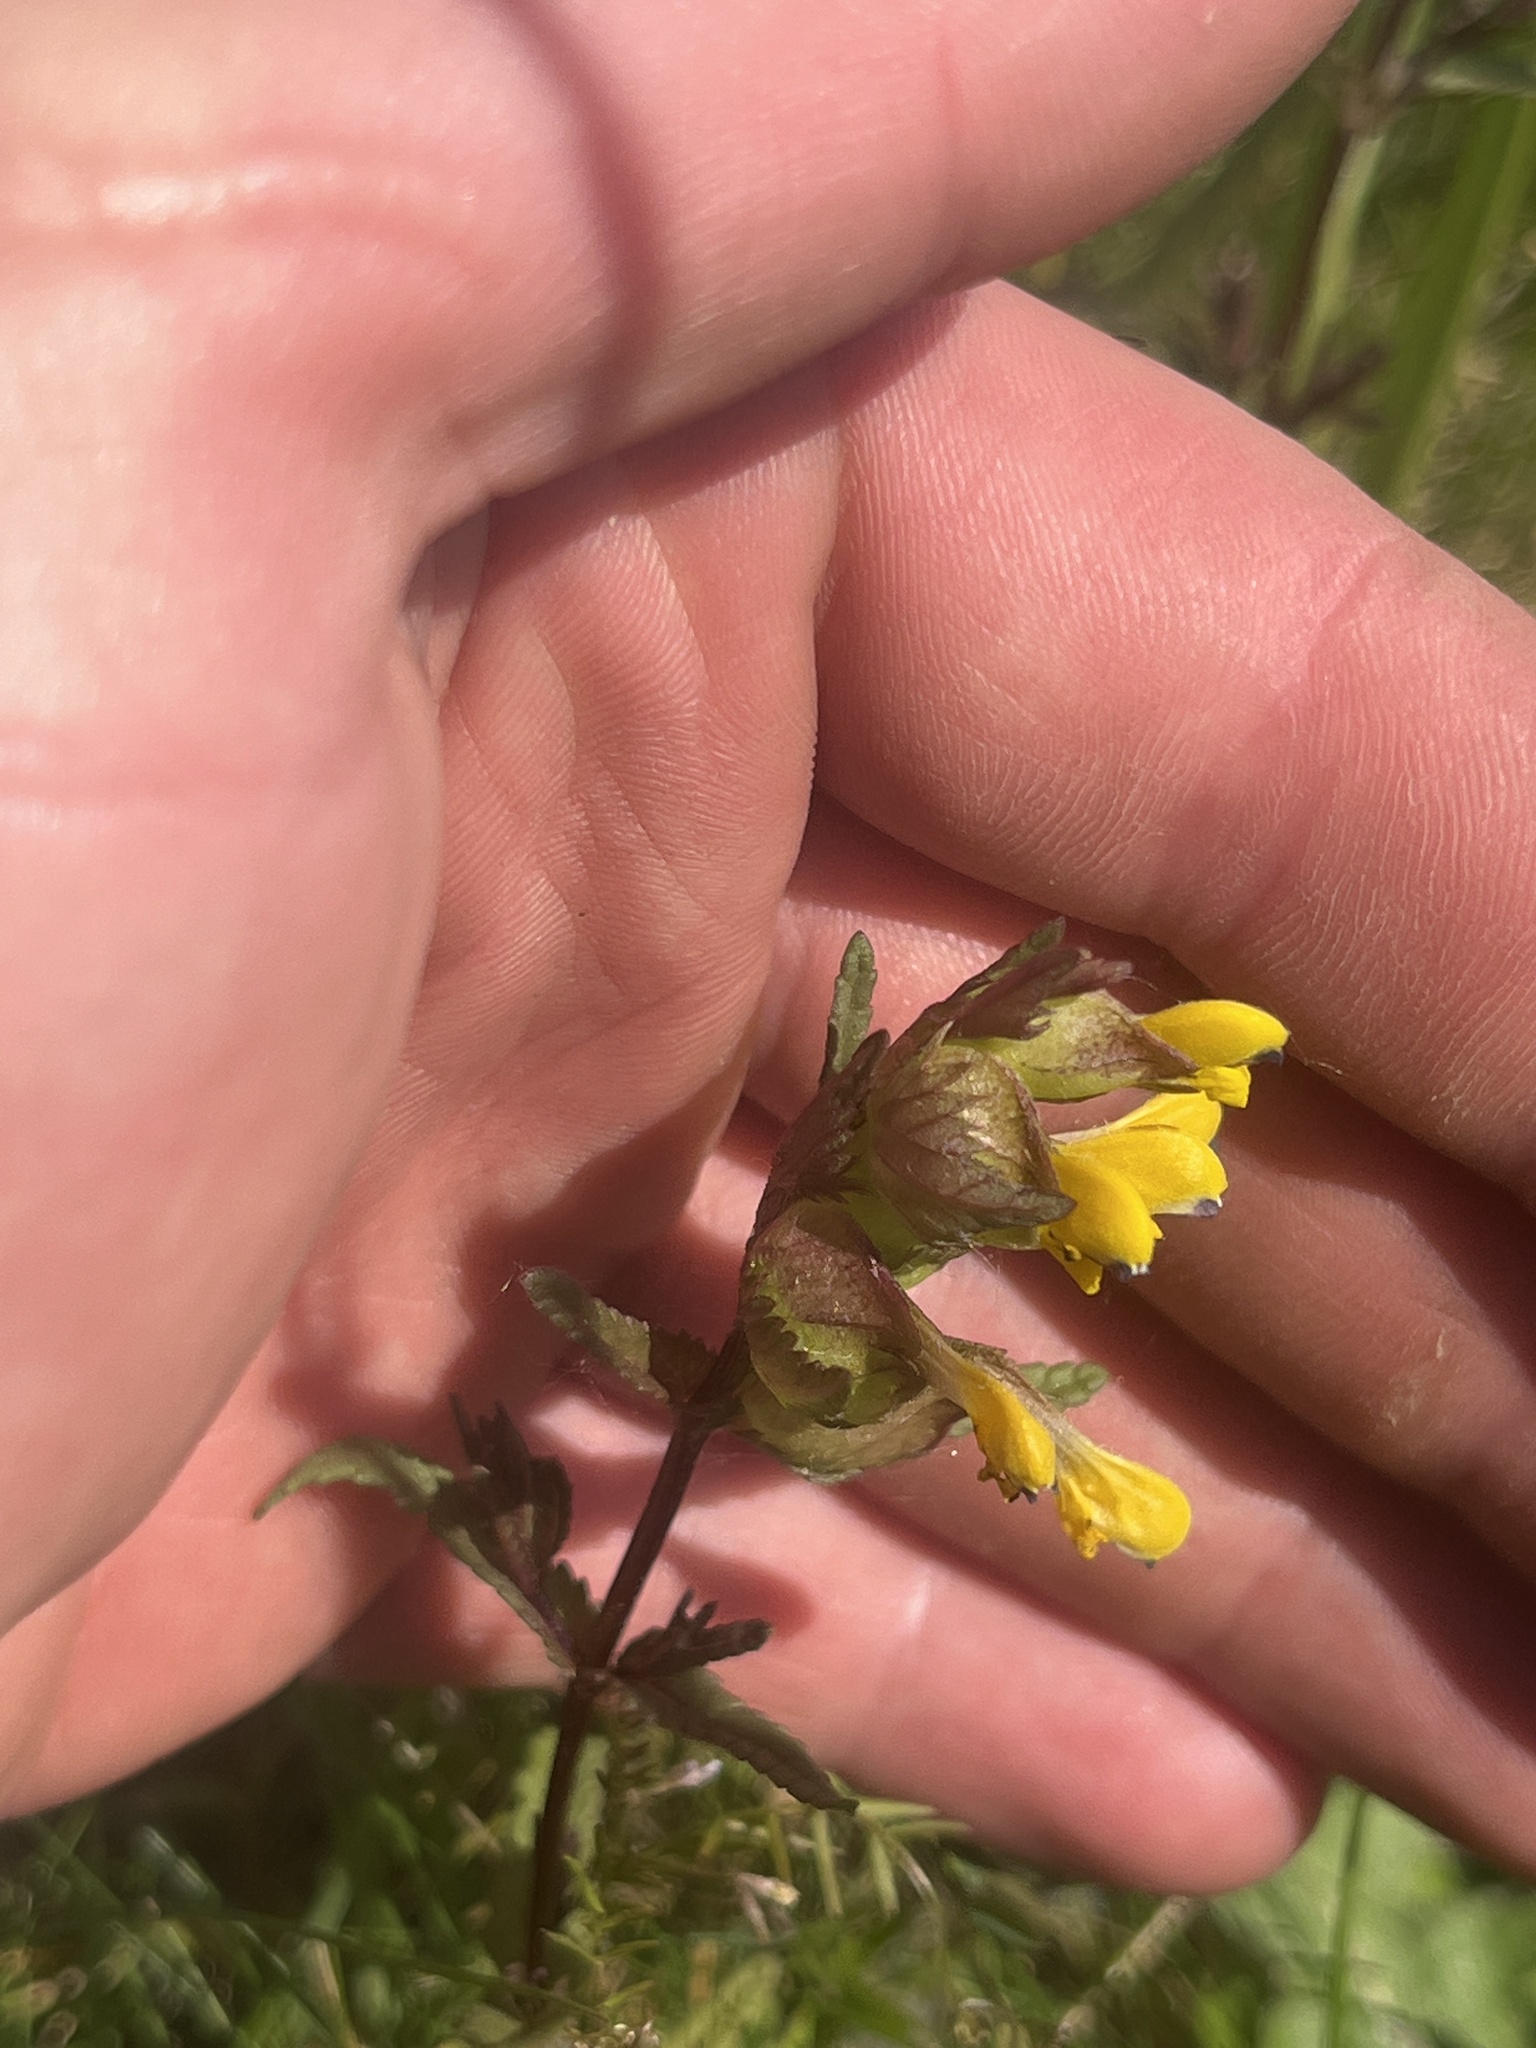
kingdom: Plantae
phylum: Tracheophyta
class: Magnoliopsida
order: Lamiales
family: Orobanchaceae
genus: Rhinanthus
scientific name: Rhinanthus minor
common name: Yellow-rattle
